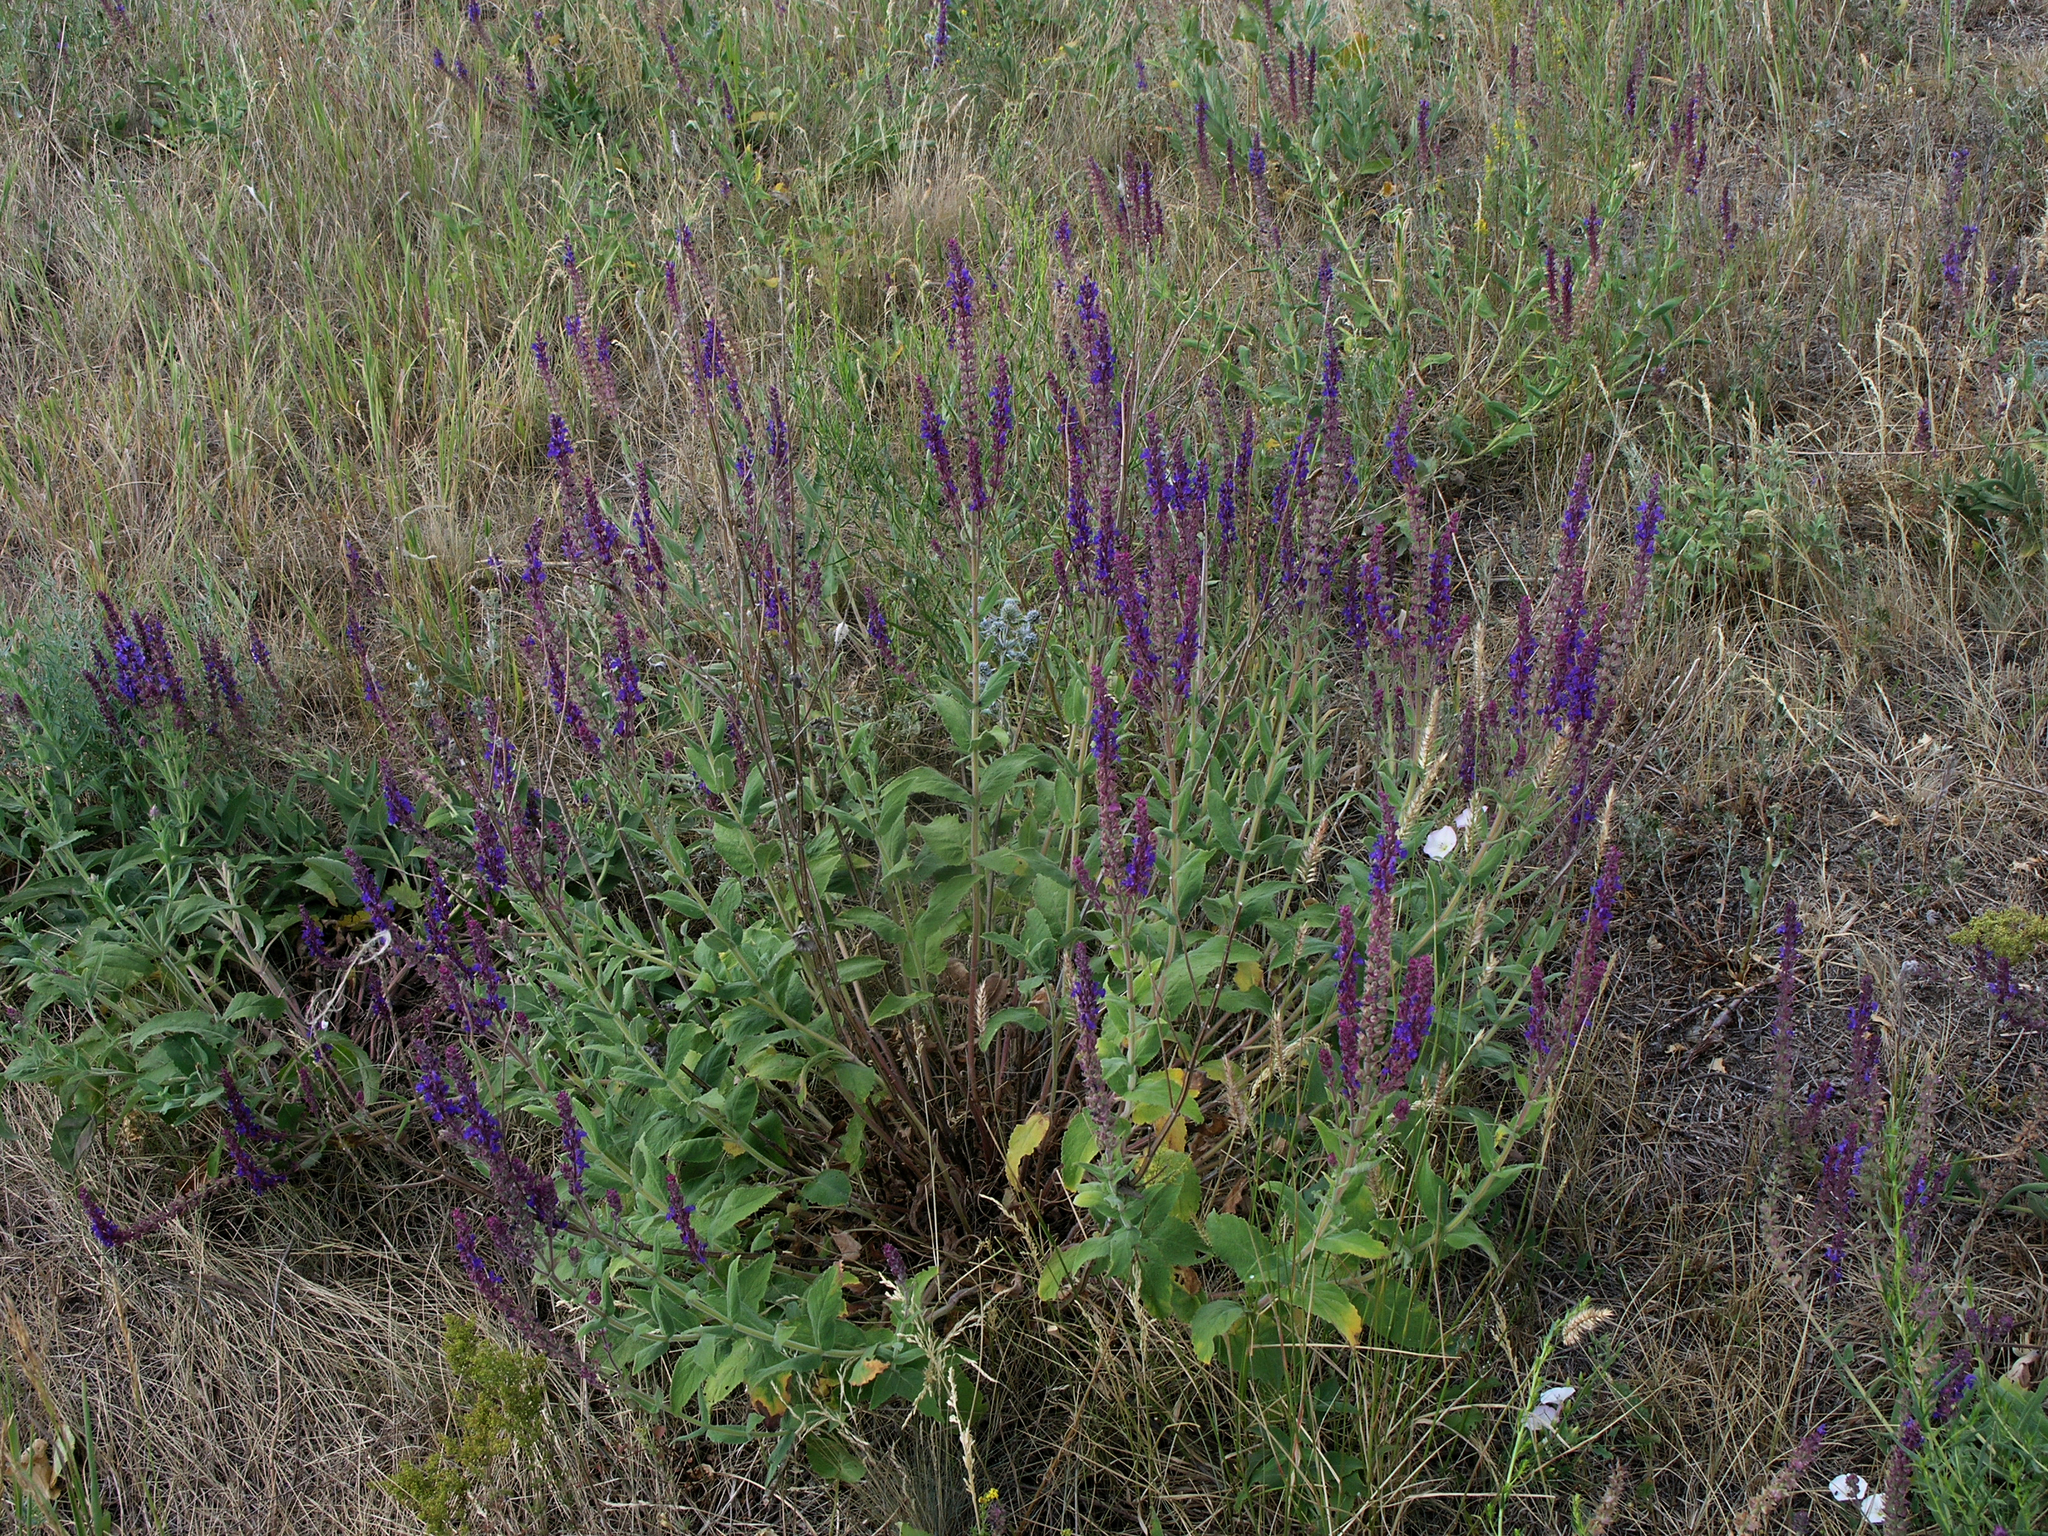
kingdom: Plantae
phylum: Tracheophyta
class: Magnoliopsida
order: Lamiales
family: Lamiaceae
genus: Salvia
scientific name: Salvia nemorosa
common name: Balkan clary
